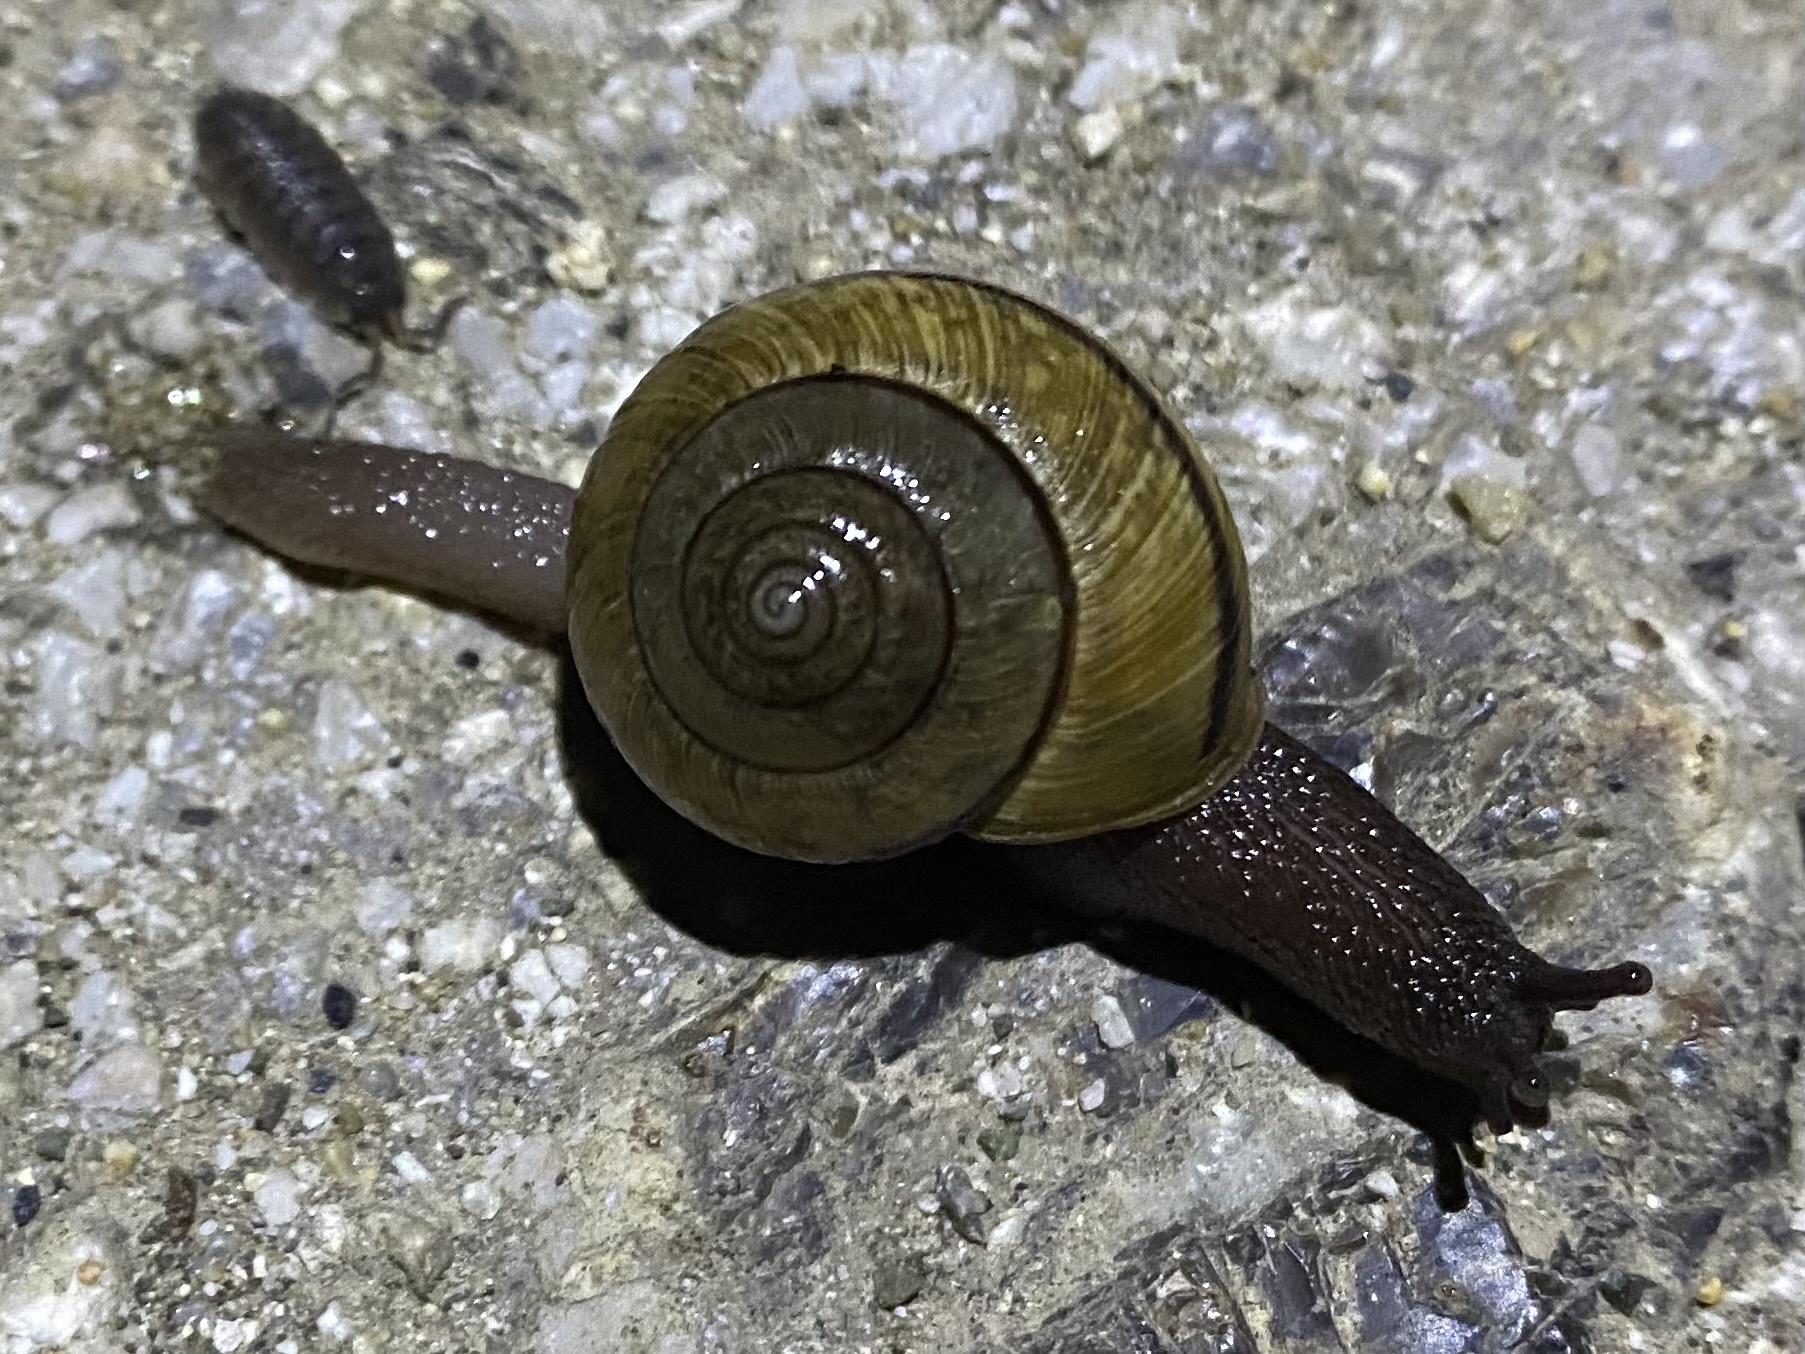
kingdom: Animalia
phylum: Mollusca
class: Gastropoda
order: Stylommatophora
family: Xanthonychidae
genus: Helminthoglypta
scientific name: Helminthoglypta nickliniana
